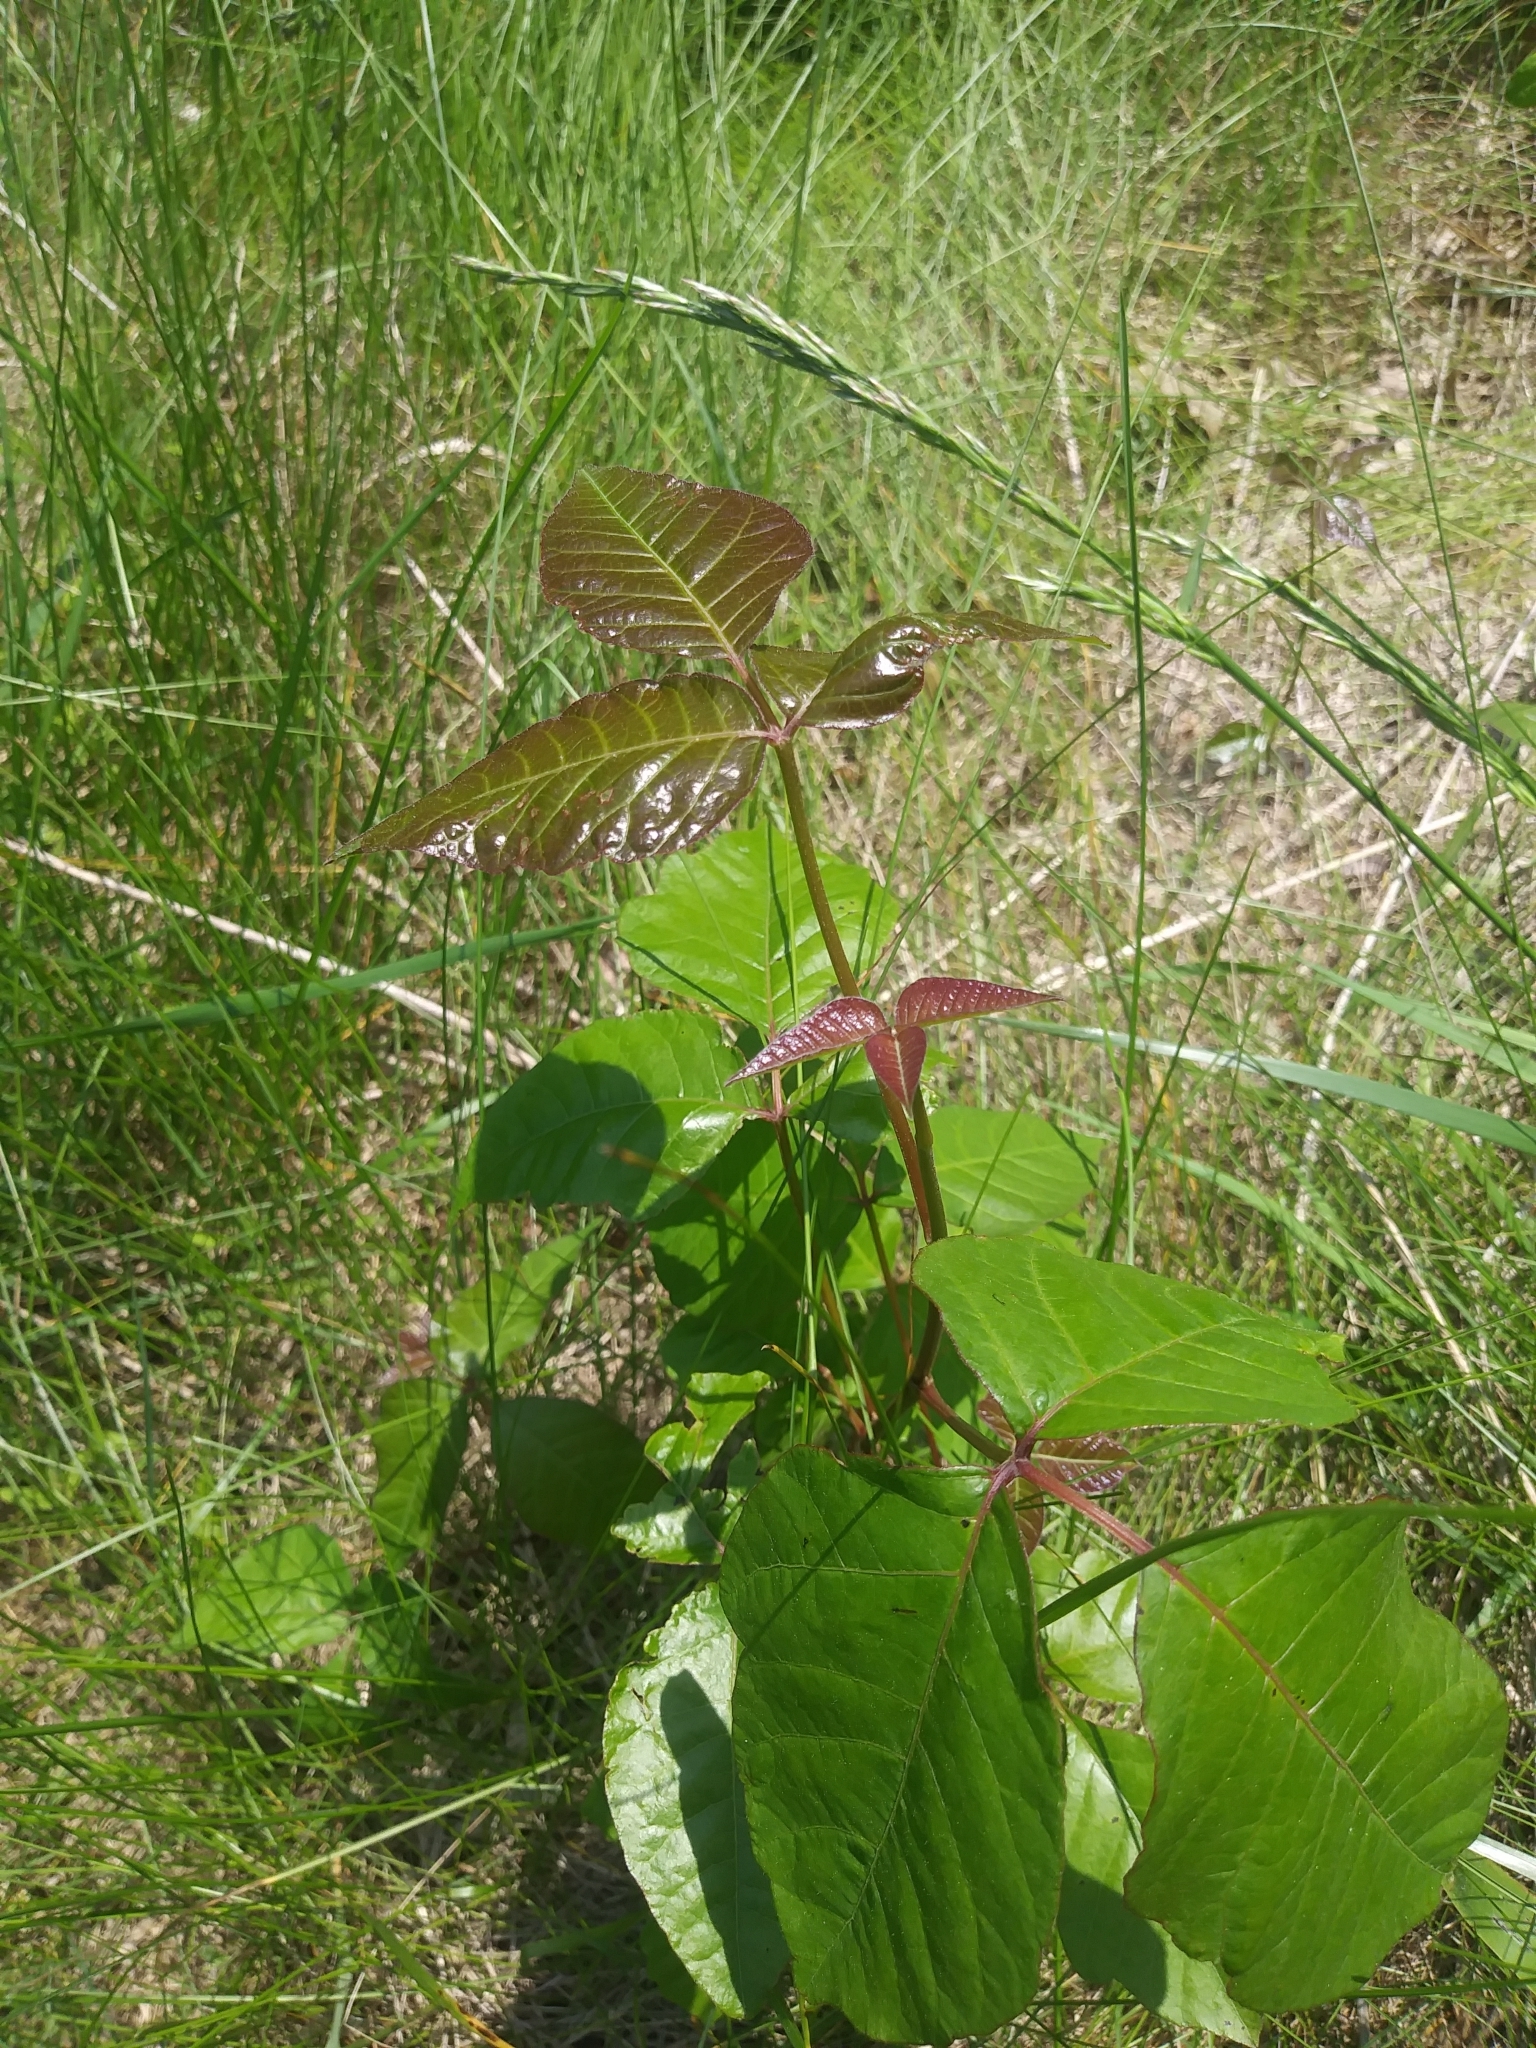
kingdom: Plantae
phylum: Tracheophyta
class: Magnoliopsida
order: Sapindales
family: Anacardiaceae
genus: Toxicodendron
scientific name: Toxicodendron radicans
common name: Poison ivy
